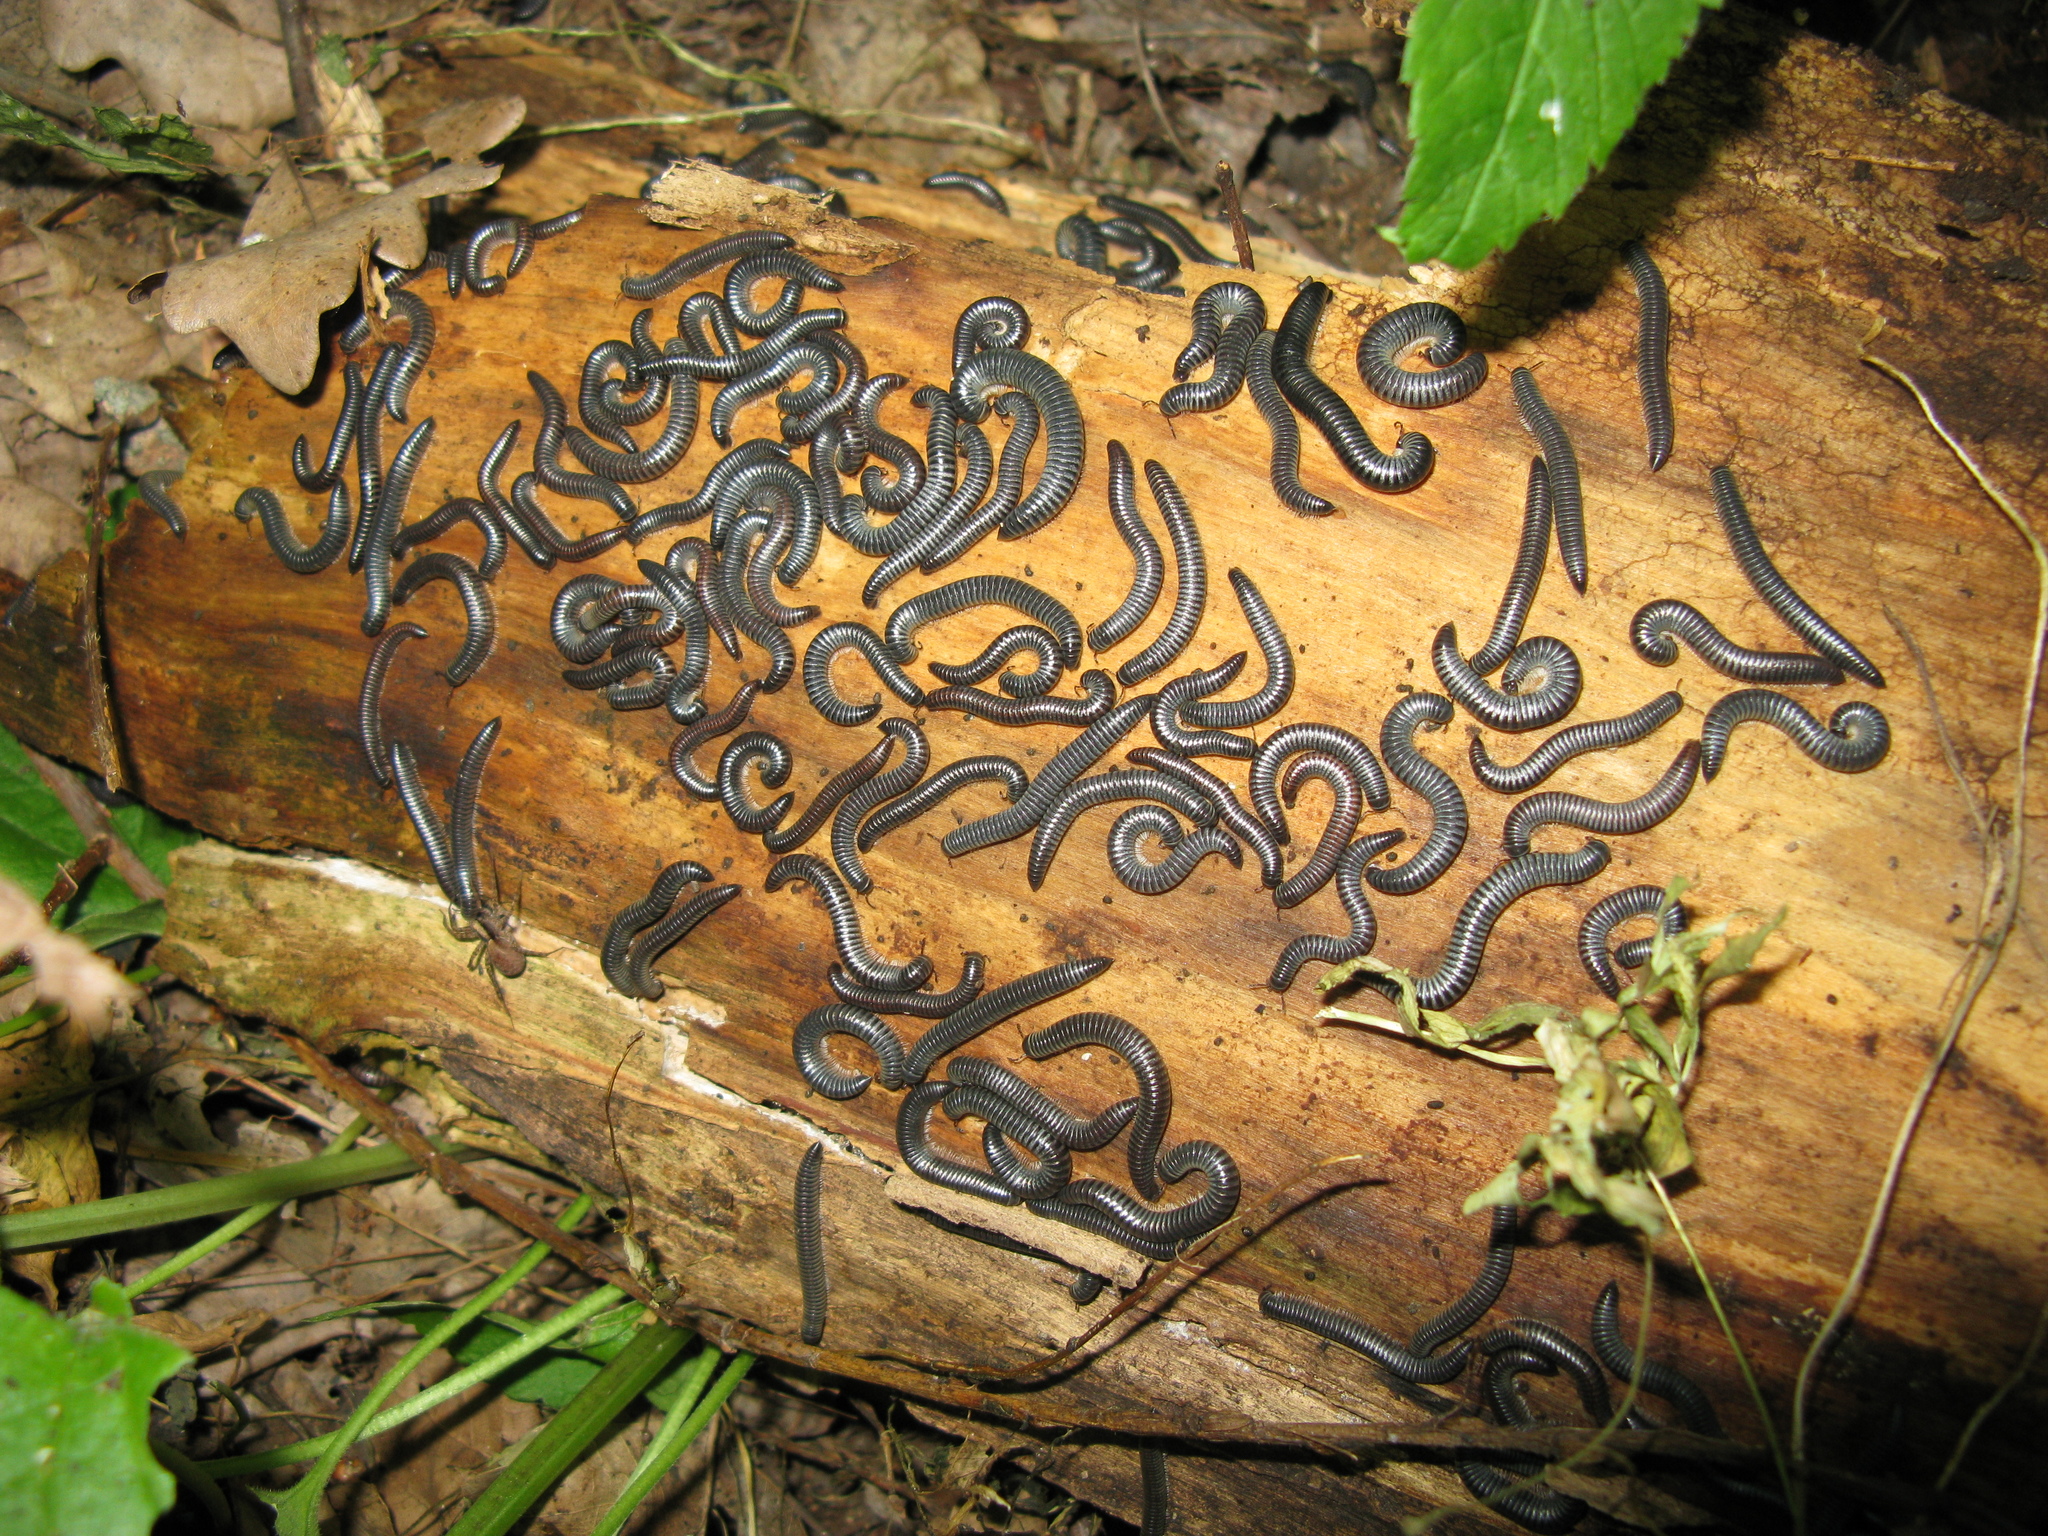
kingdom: Animalia
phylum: Arthropoda
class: Diplopoda
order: Julida
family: Julidae
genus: Rossiulus
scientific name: Rossiulus kessleri
